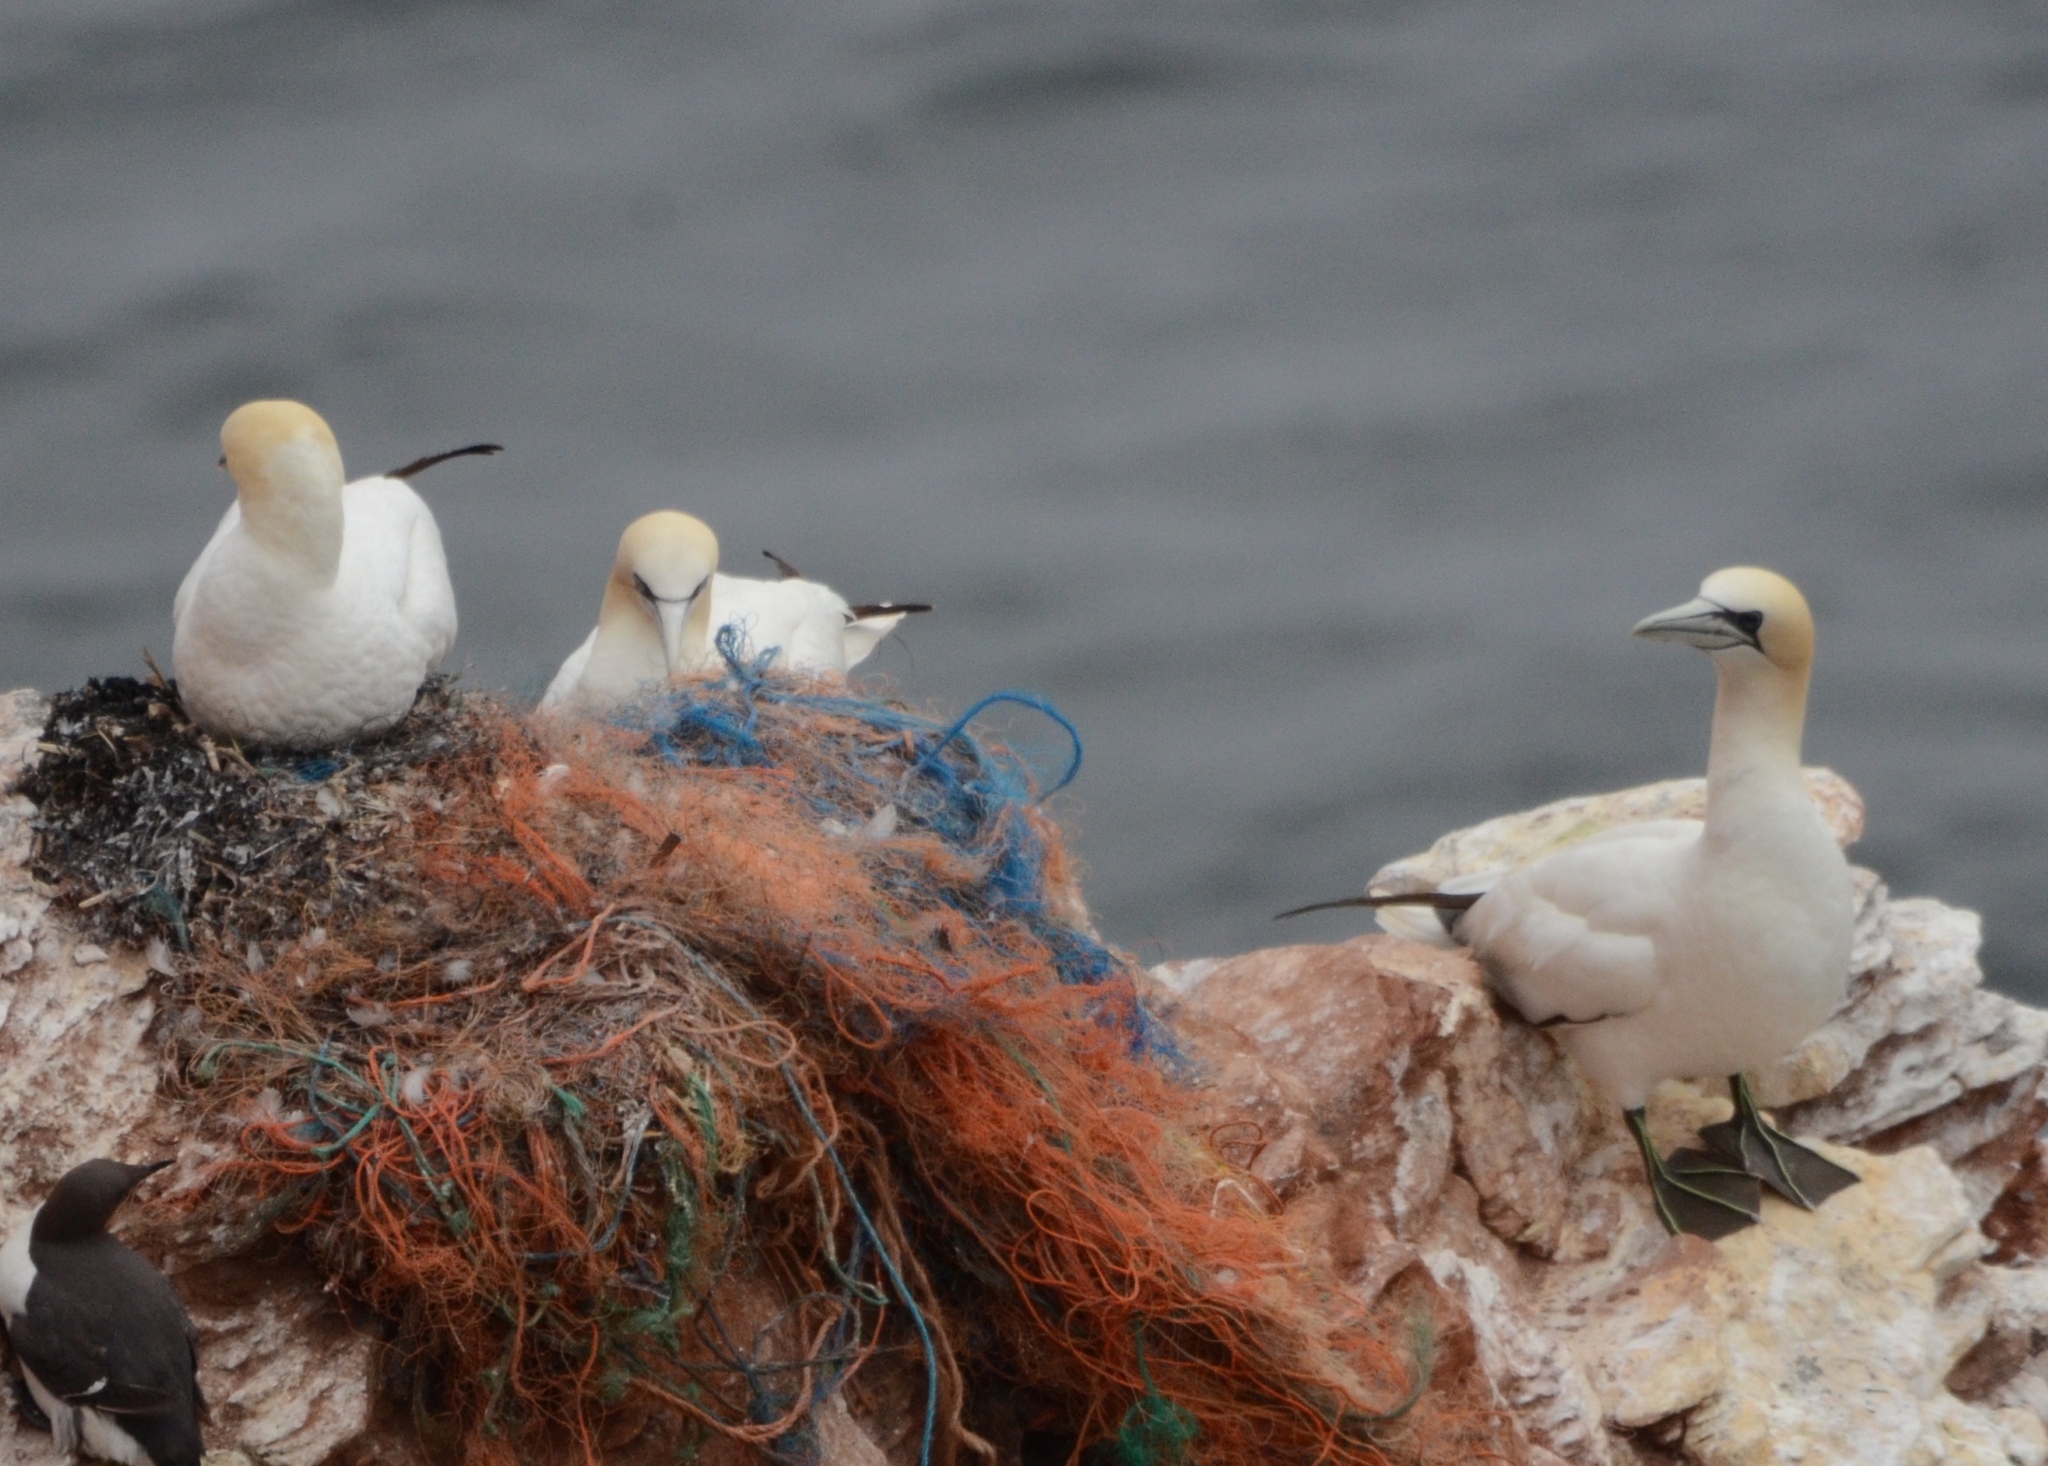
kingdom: Animalia
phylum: Chordata
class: Aves
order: Suliformes
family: Sulidae
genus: Morus
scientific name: Morus bassanus
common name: Northern gannet
